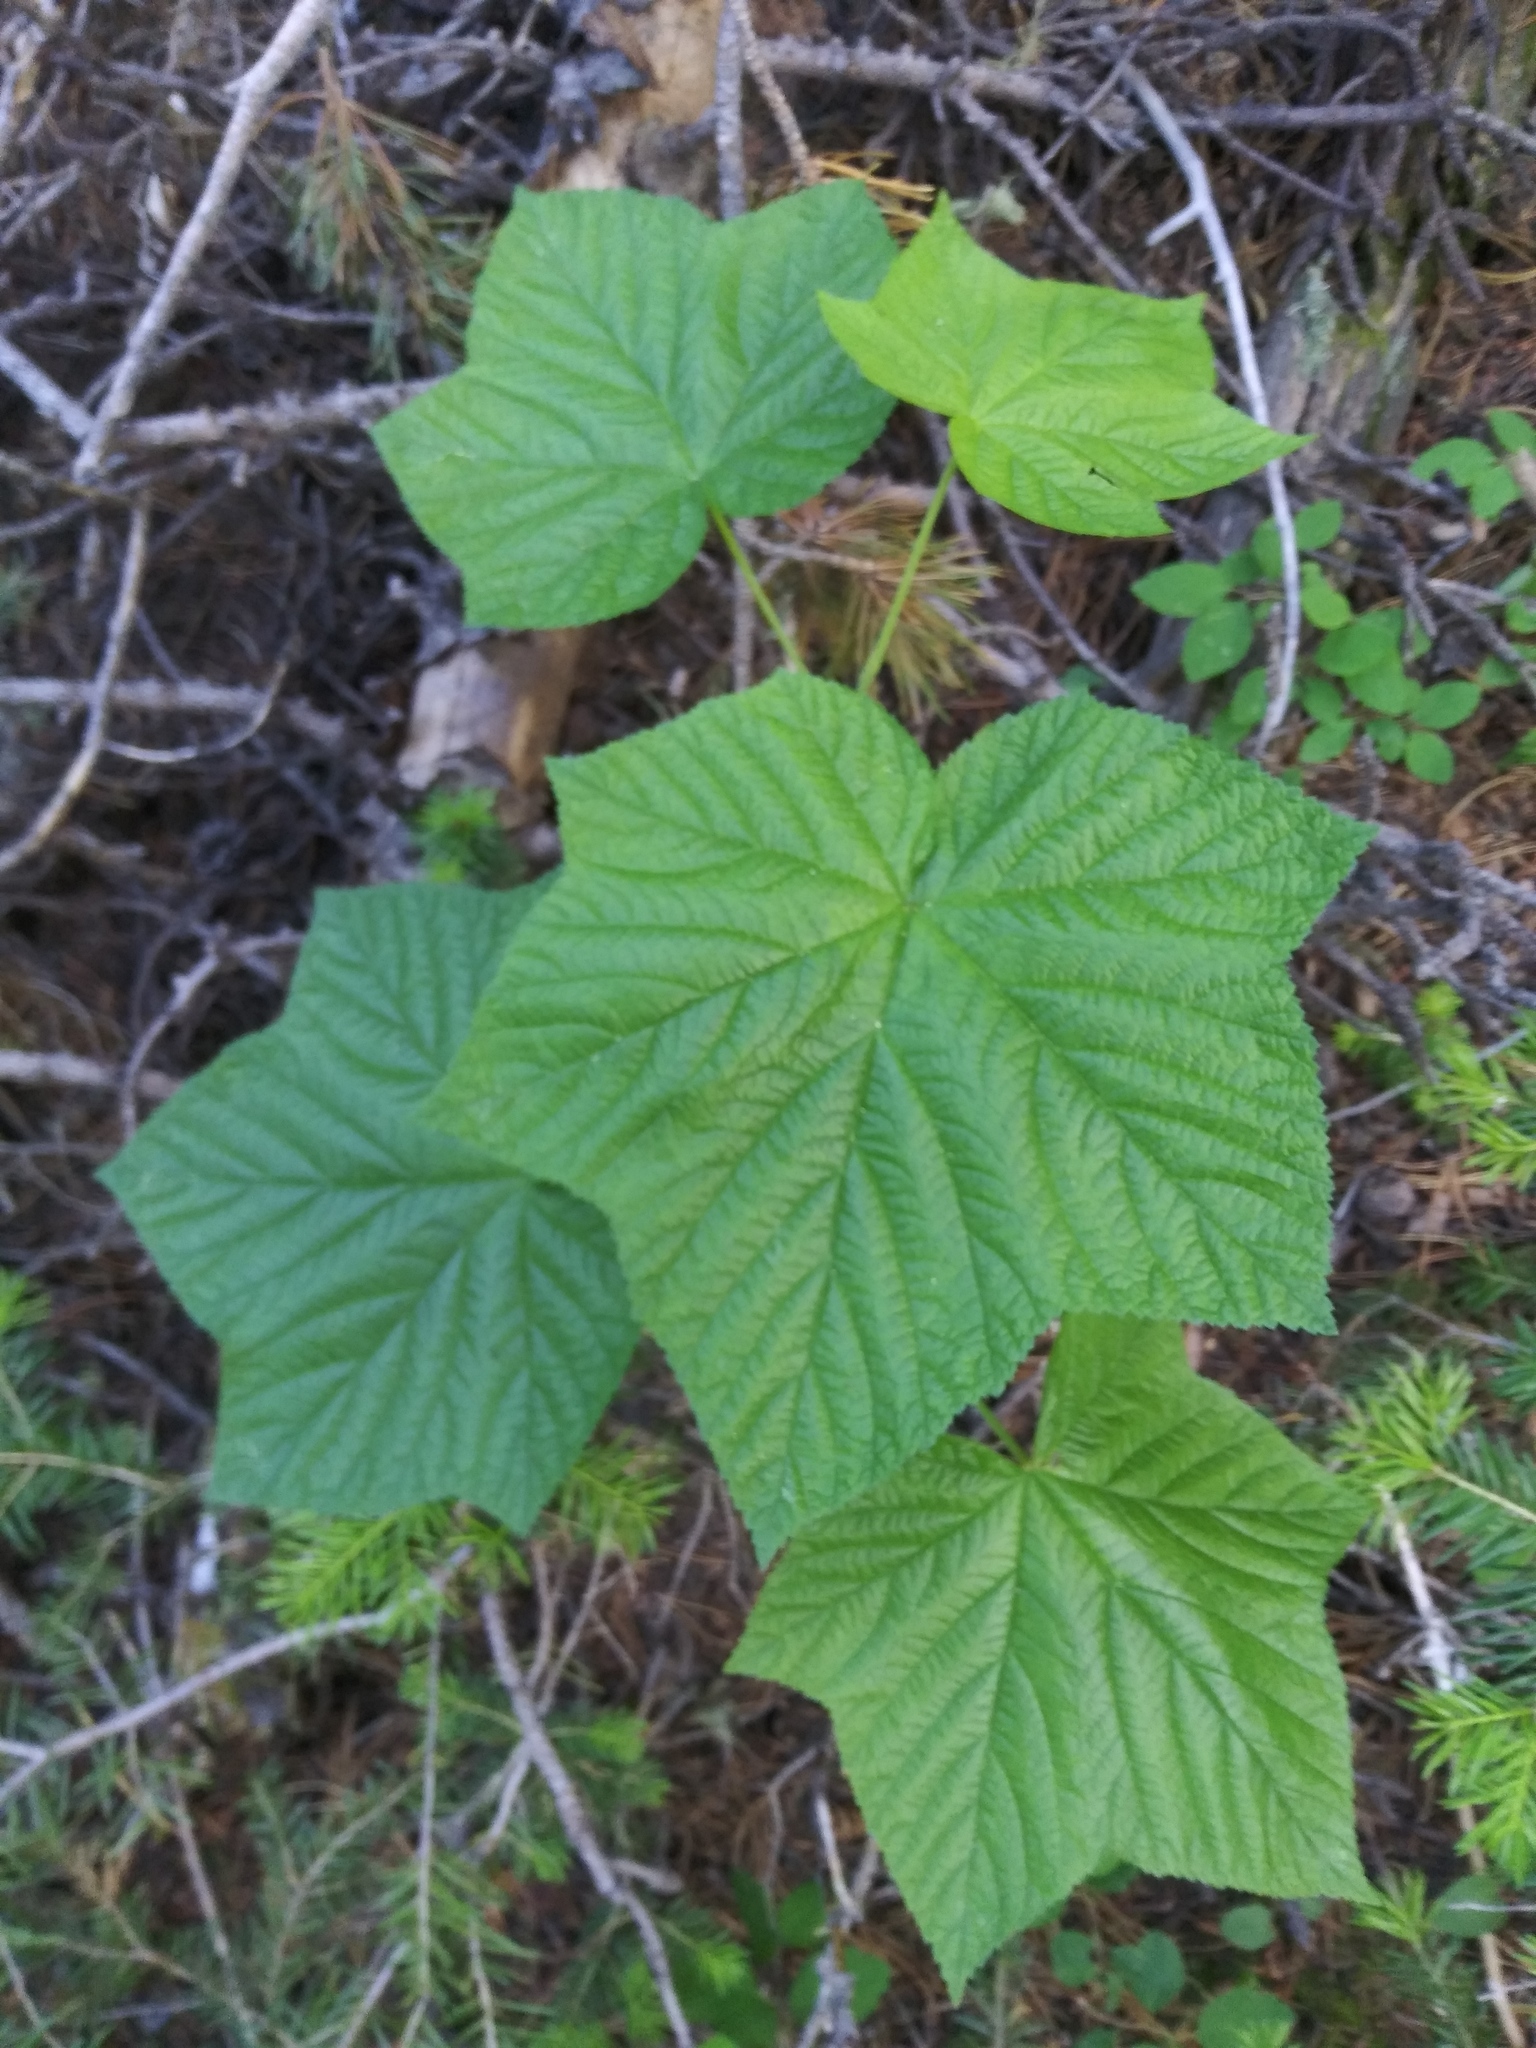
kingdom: Plantae
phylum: Tracheophyta
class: Magnoliopsida
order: Rosales
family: Rosaceae
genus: Rubus
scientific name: Rubus parviflorus
